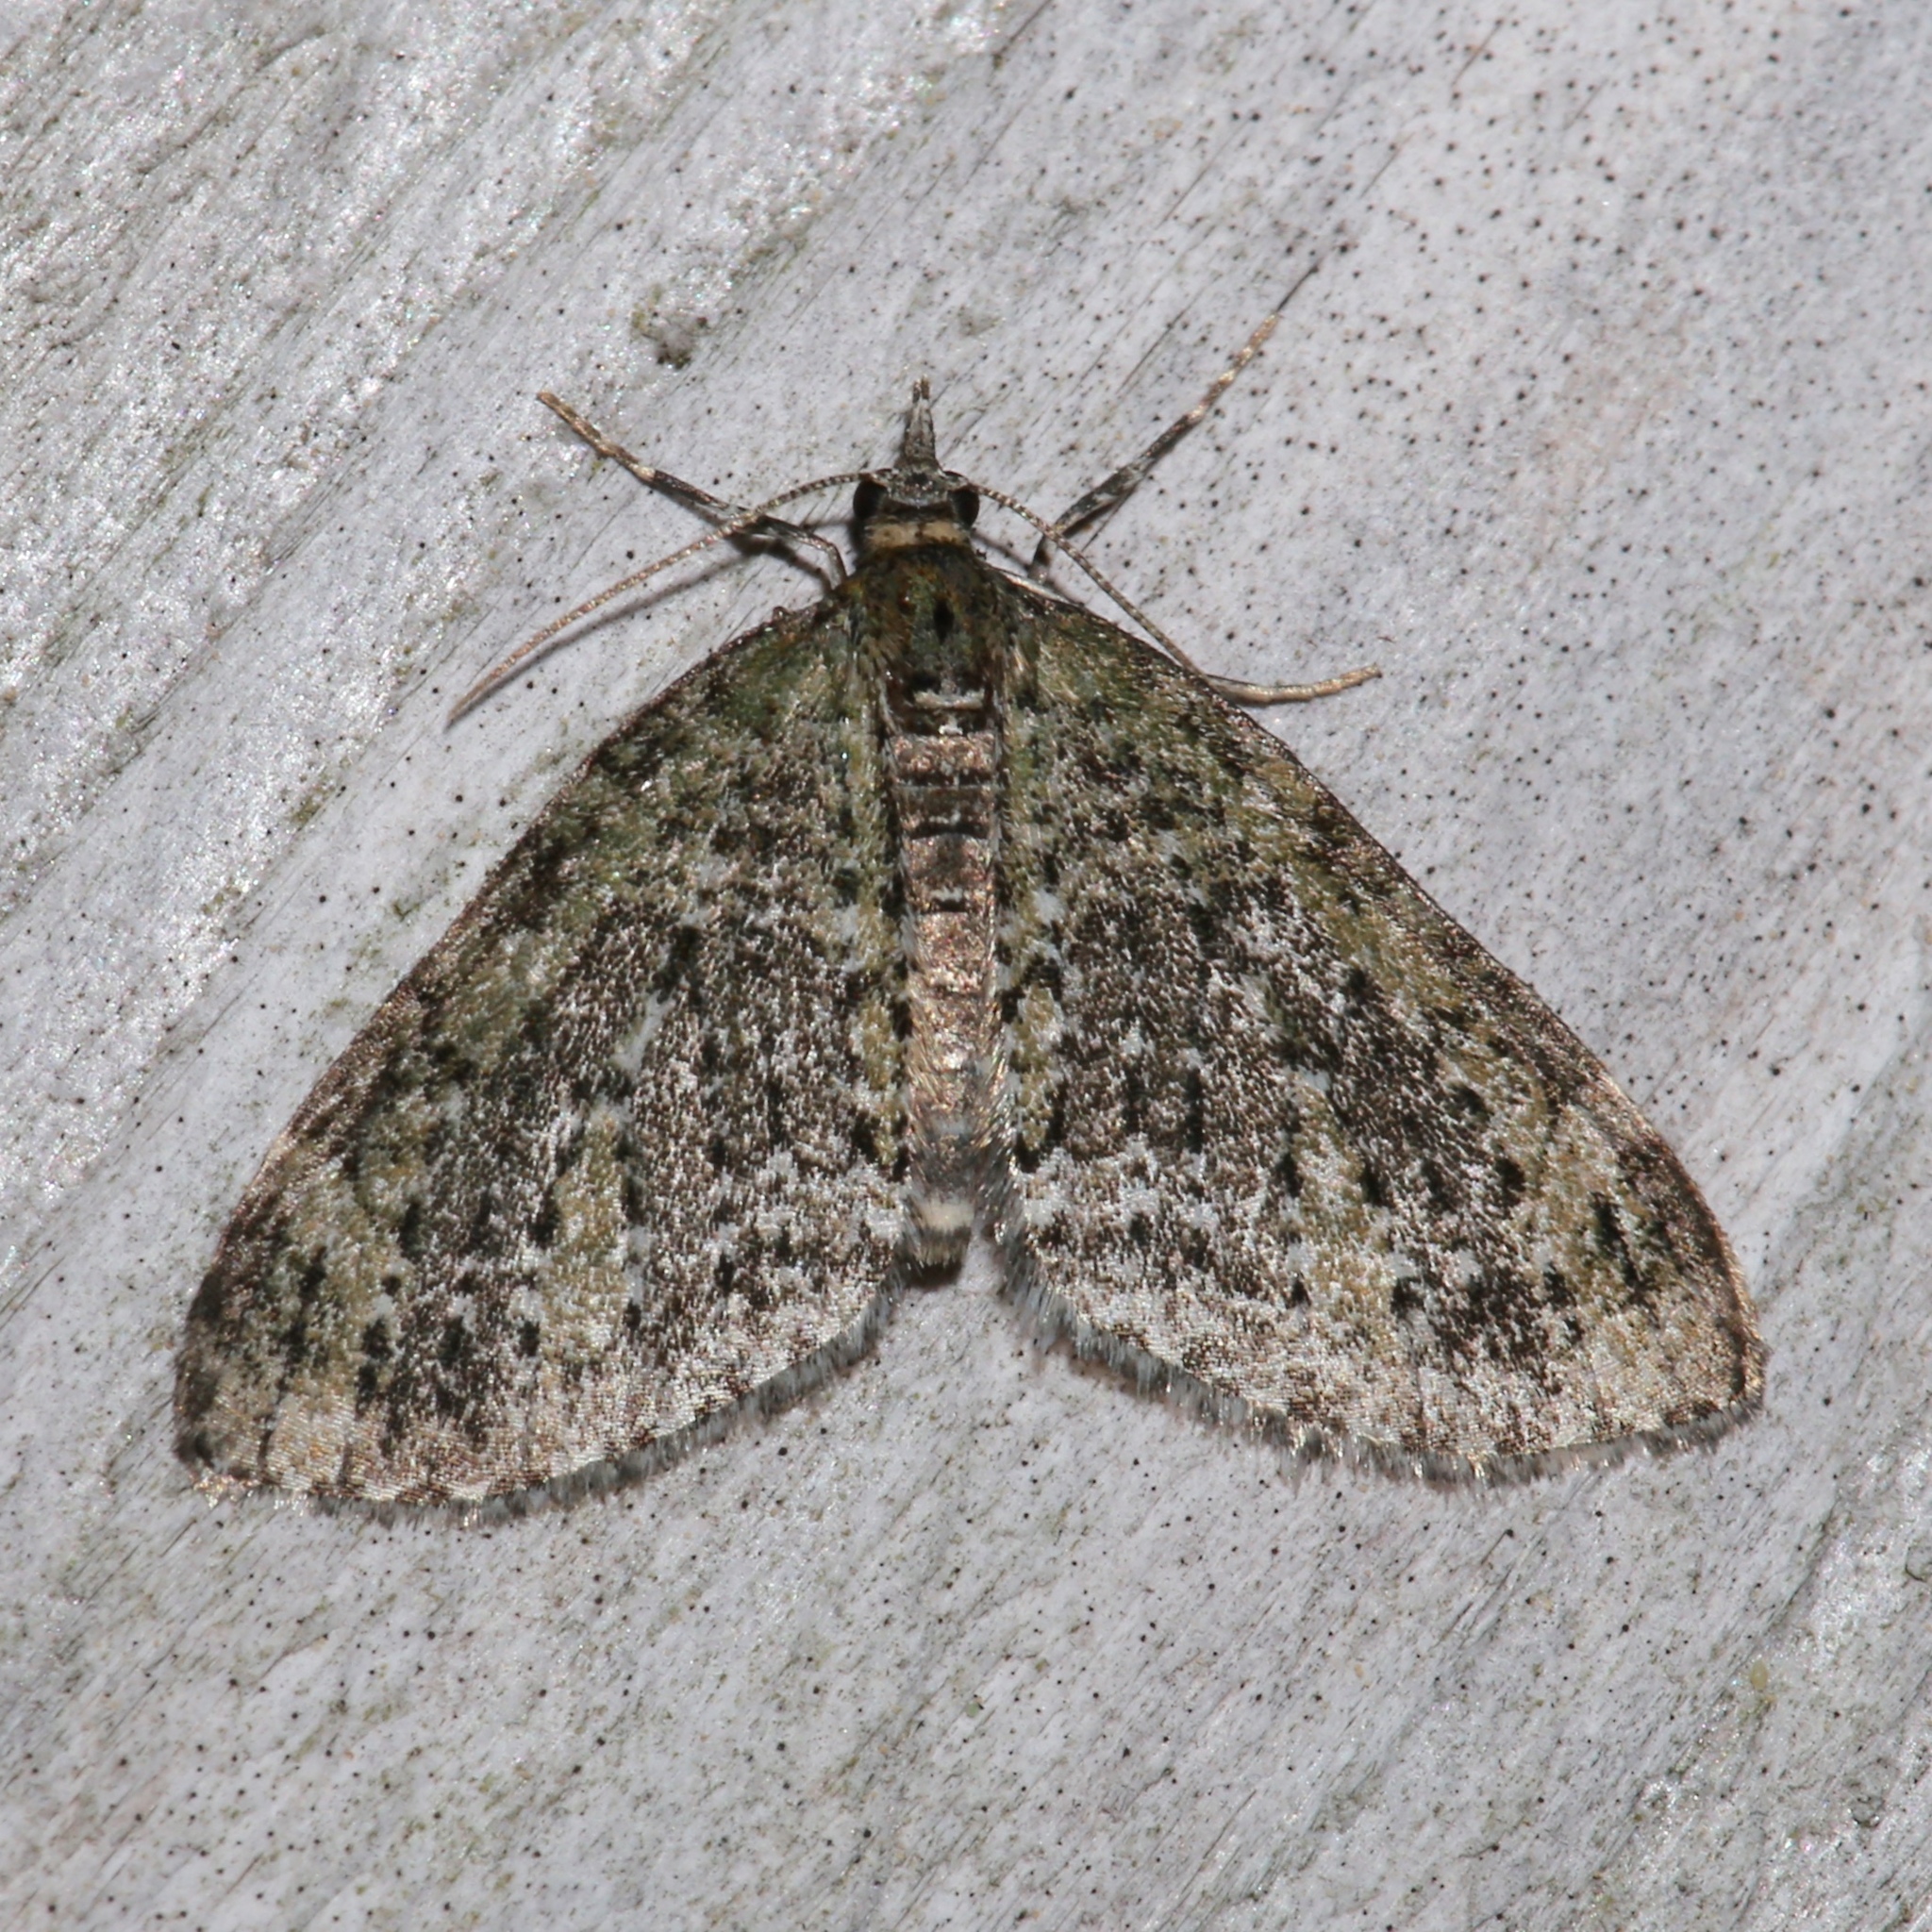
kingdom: Animalia
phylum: Arthropoda
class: Insecta
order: Lepidoptera
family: Geometridae
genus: Acasis
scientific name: Acasis viridata
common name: Olive-and-black carpet moth
